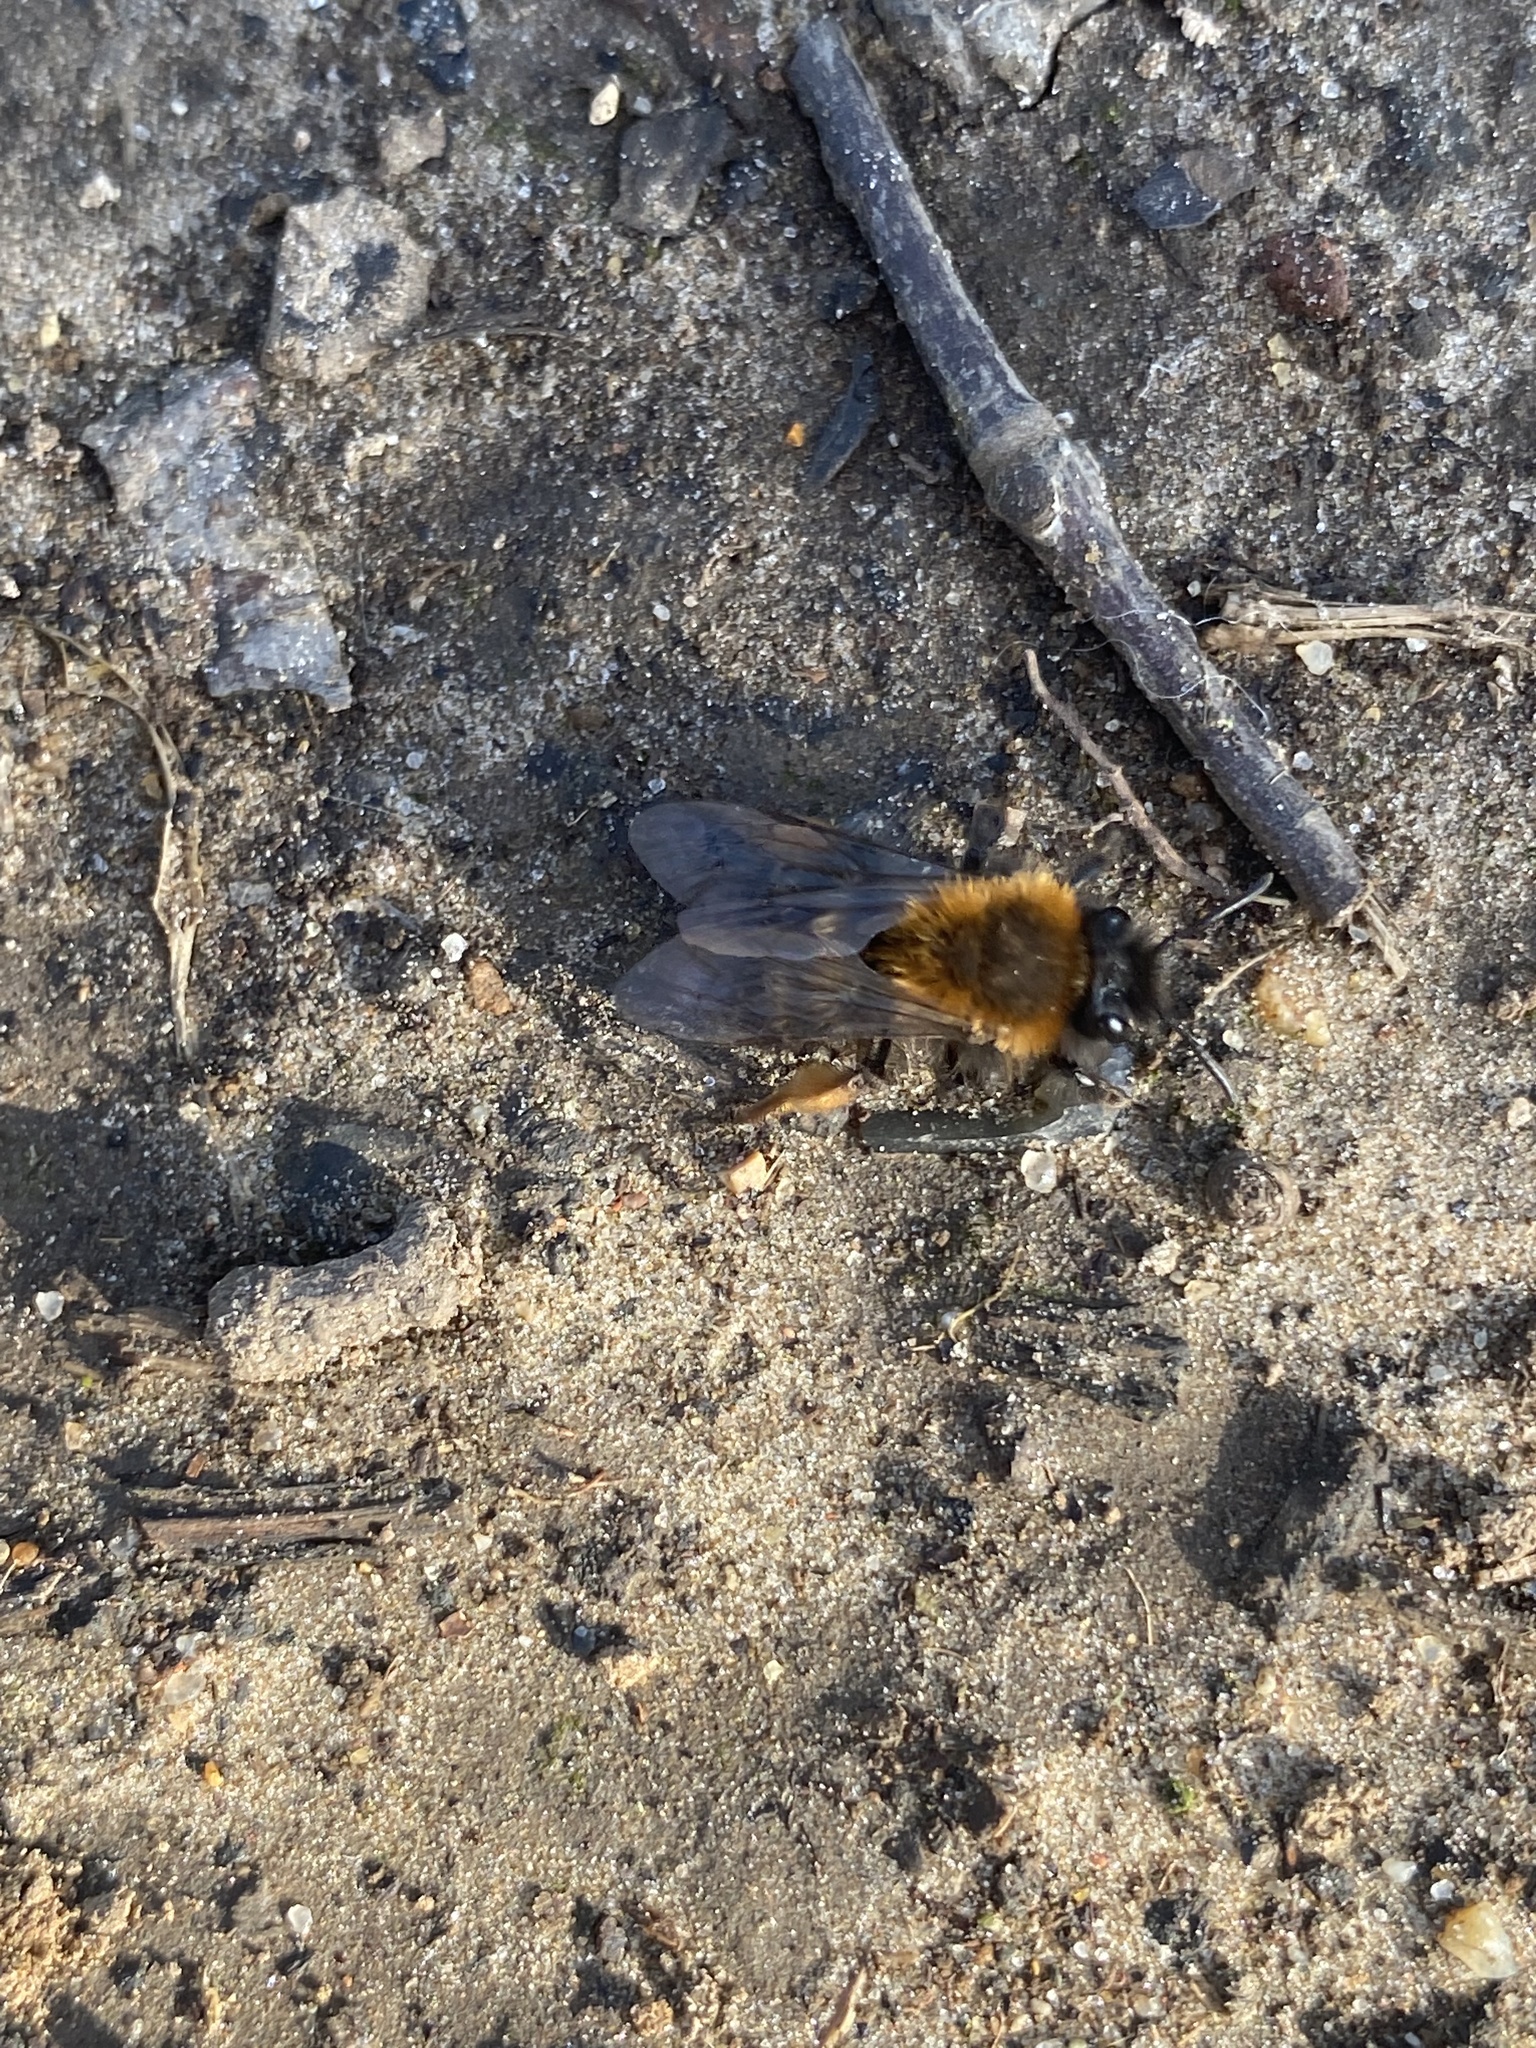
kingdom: Animalia
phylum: Arthropoda
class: Insecta
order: Hymenoptera
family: Andrenidae
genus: Andrena
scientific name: Andrena clarkella
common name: Clarke's mining bee
